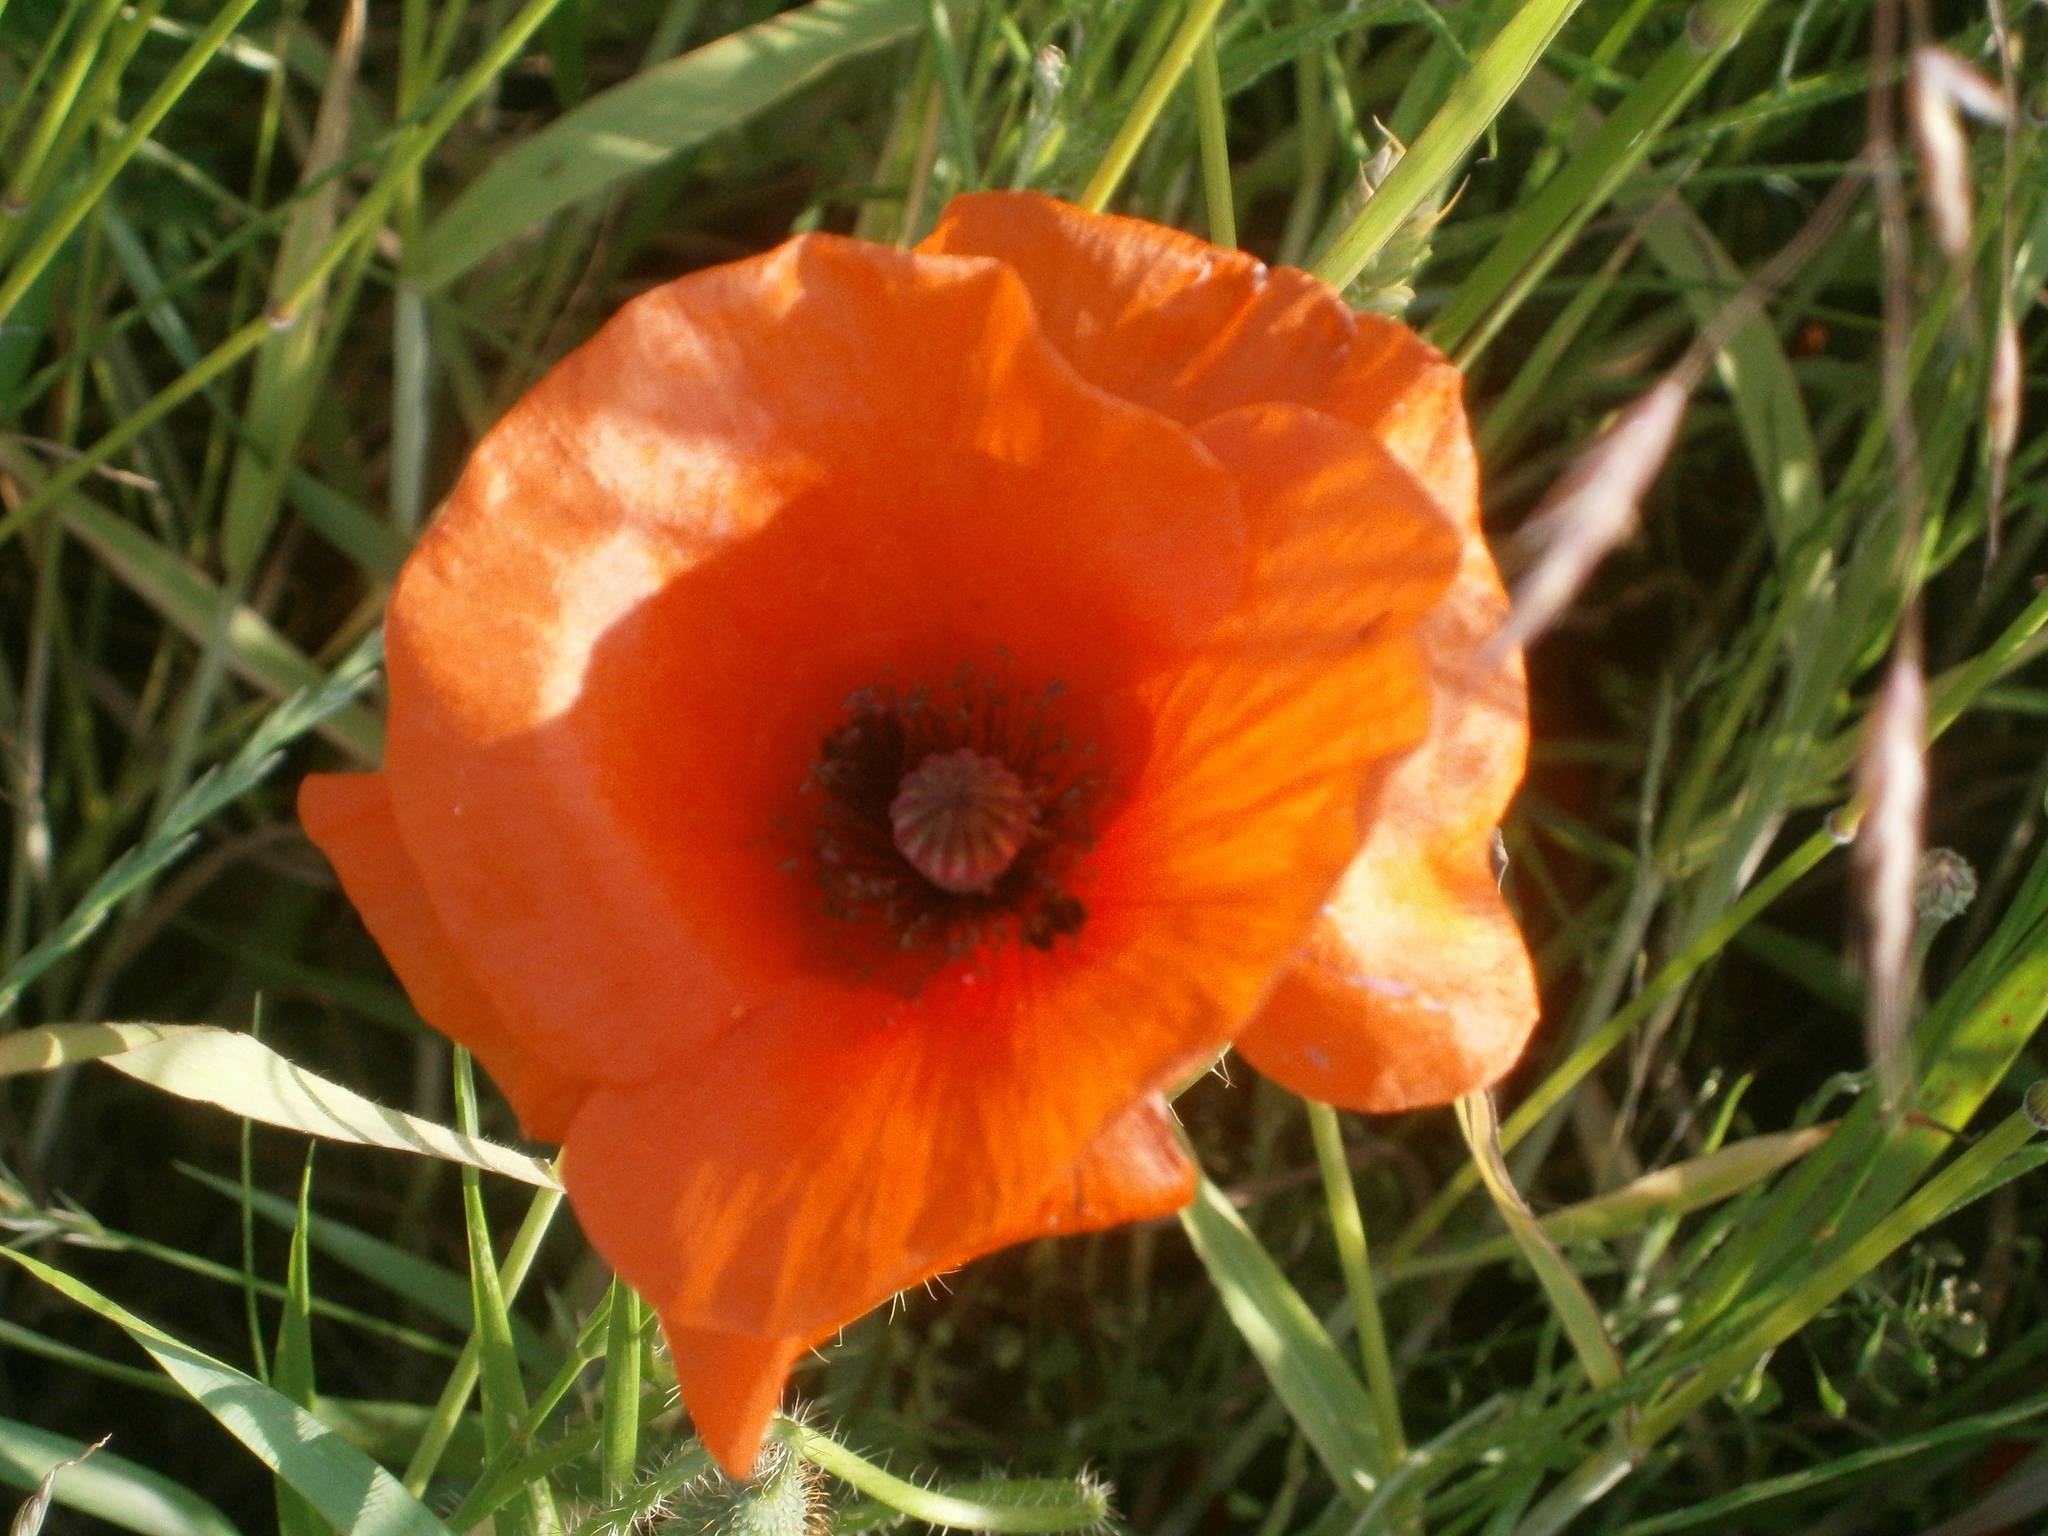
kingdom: Plantae
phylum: Tracheophyta
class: Magnoliopsida
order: Ranunculales
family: Papaveraceae
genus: Papaver
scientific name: Papaver rhoeas
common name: Corn poppy
